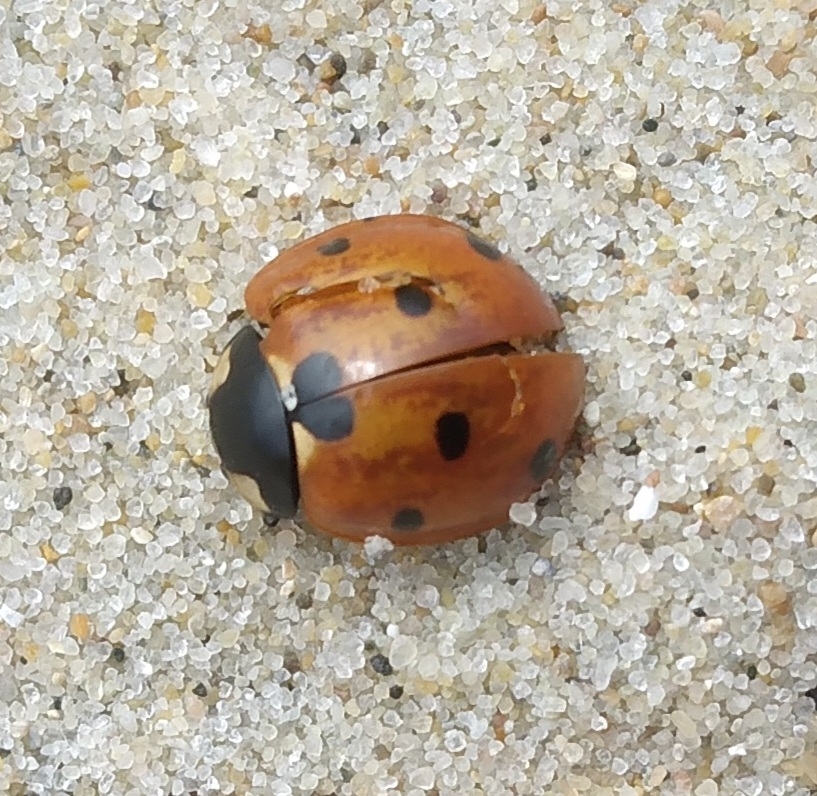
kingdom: Animalia
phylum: Arthropoda
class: Insecta
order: Coleoptera
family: Coccinellidae
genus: Coccinella
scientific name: Coccinella septempunctata
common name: Sevenspotted lady beetle
